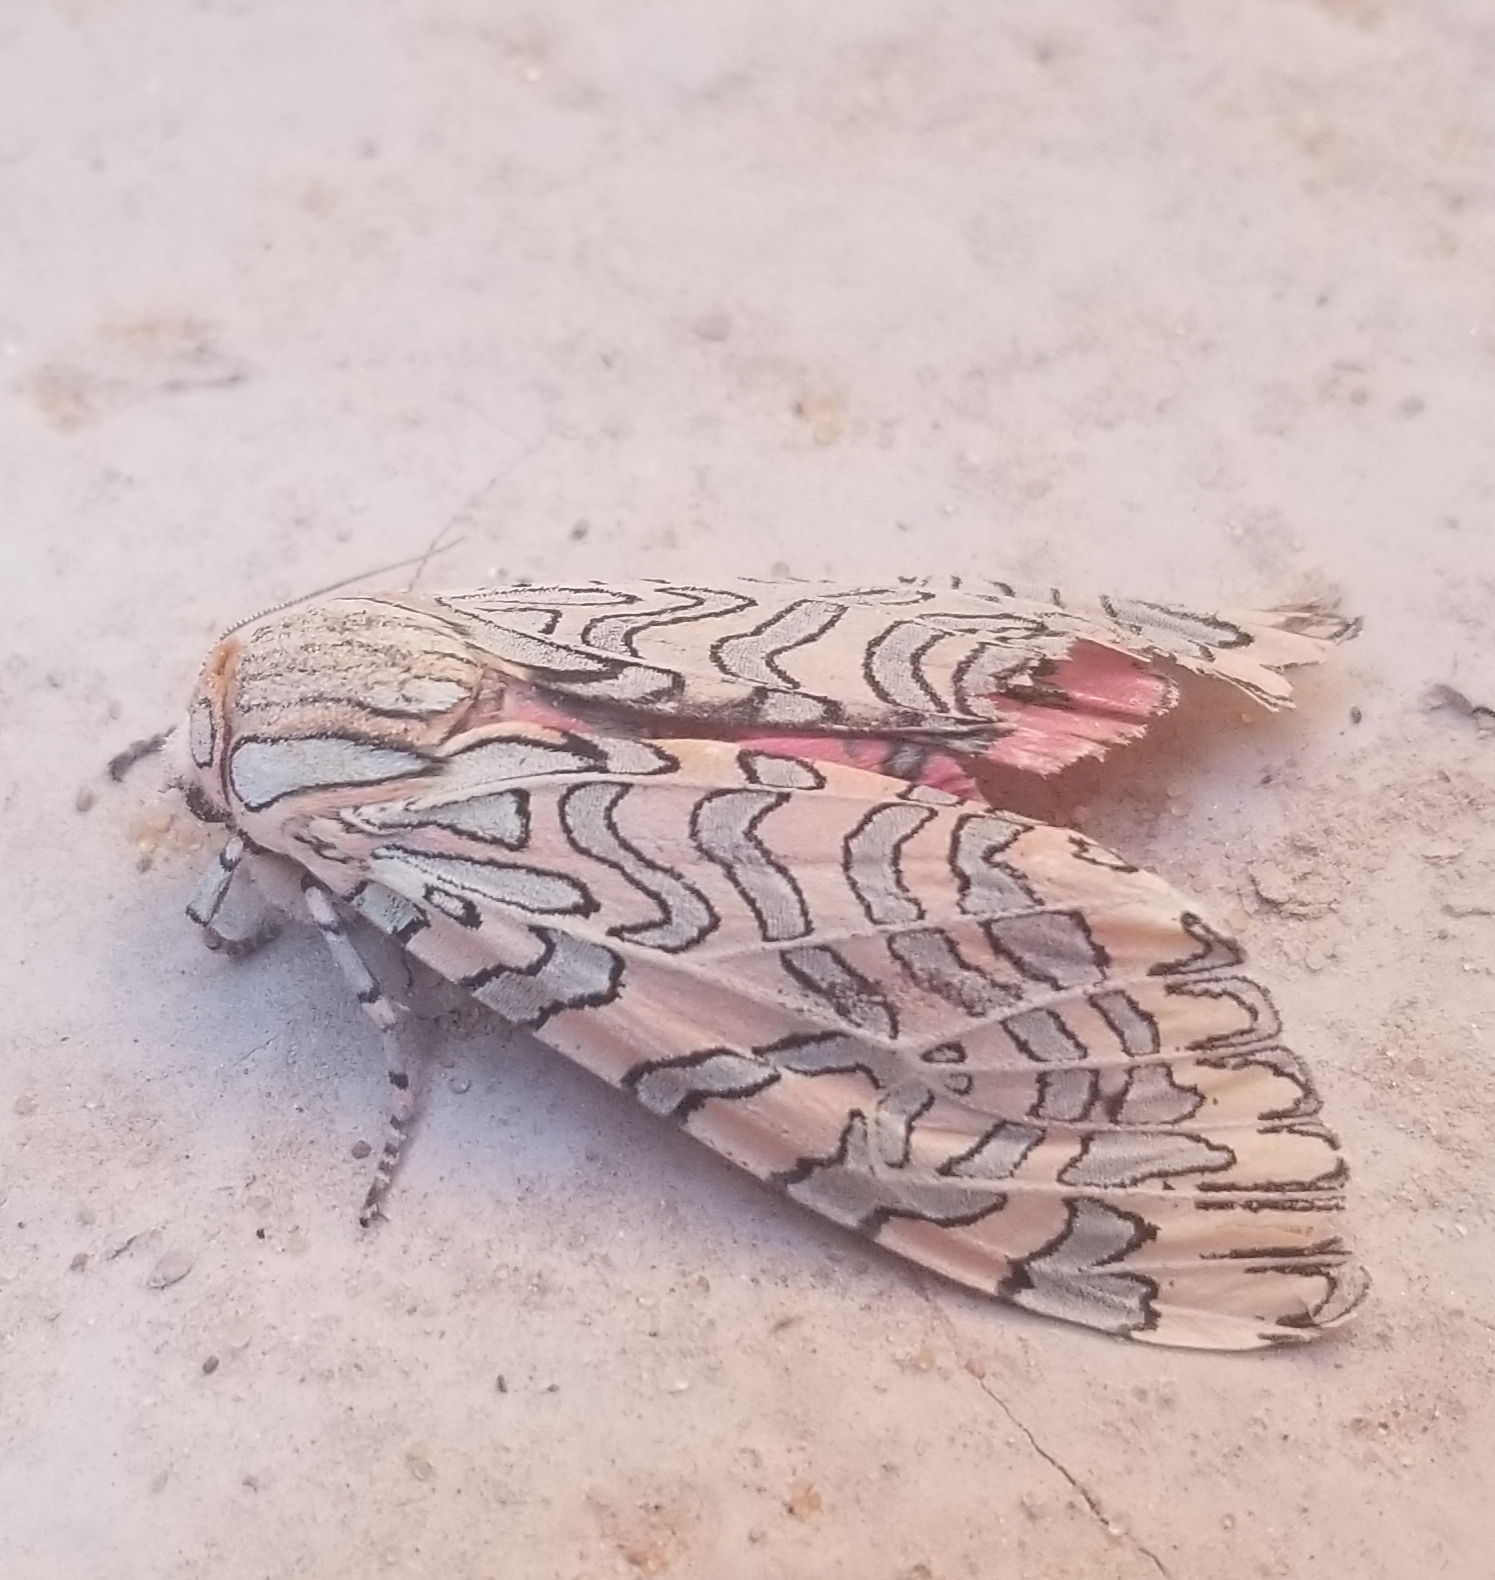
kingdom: Animalia
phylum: Arthropoda
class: Insecta
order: Lepidoptera
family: Erebidae
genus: Arachnis
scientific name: Arachnis citra
